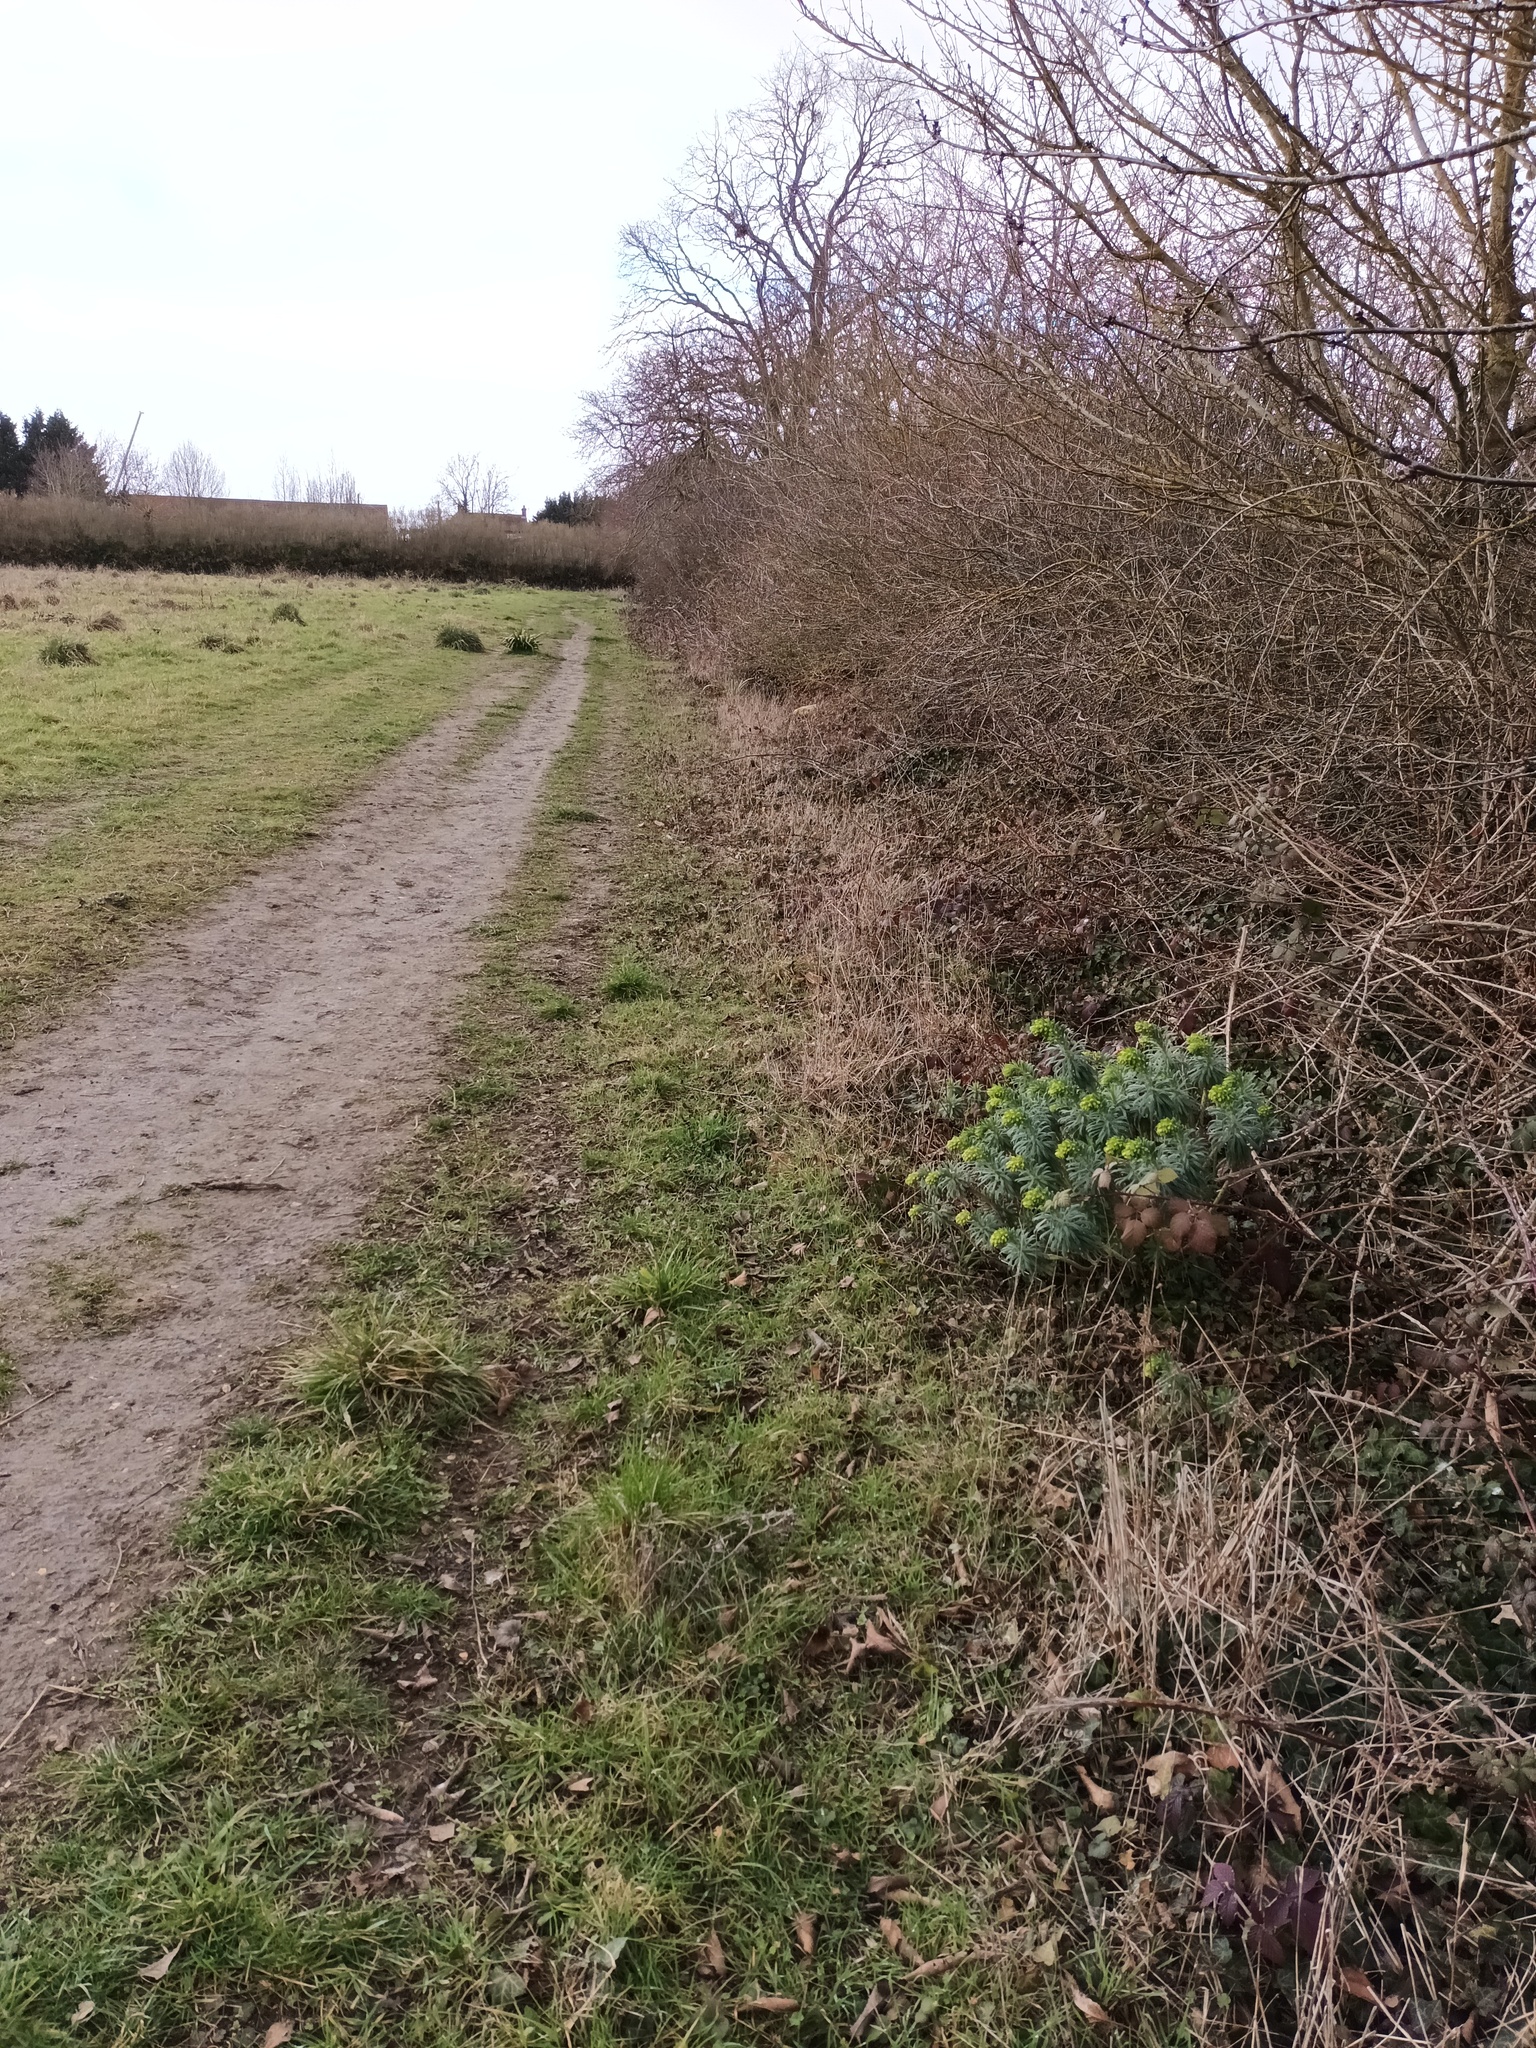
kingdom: Plantae
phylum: Tracheophyta
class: Magnoliopsida
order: Malpighiales
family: Euphorbiaceae
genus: Euphorbia
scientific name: Euphorbia characias
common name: Mediterranean spurge
